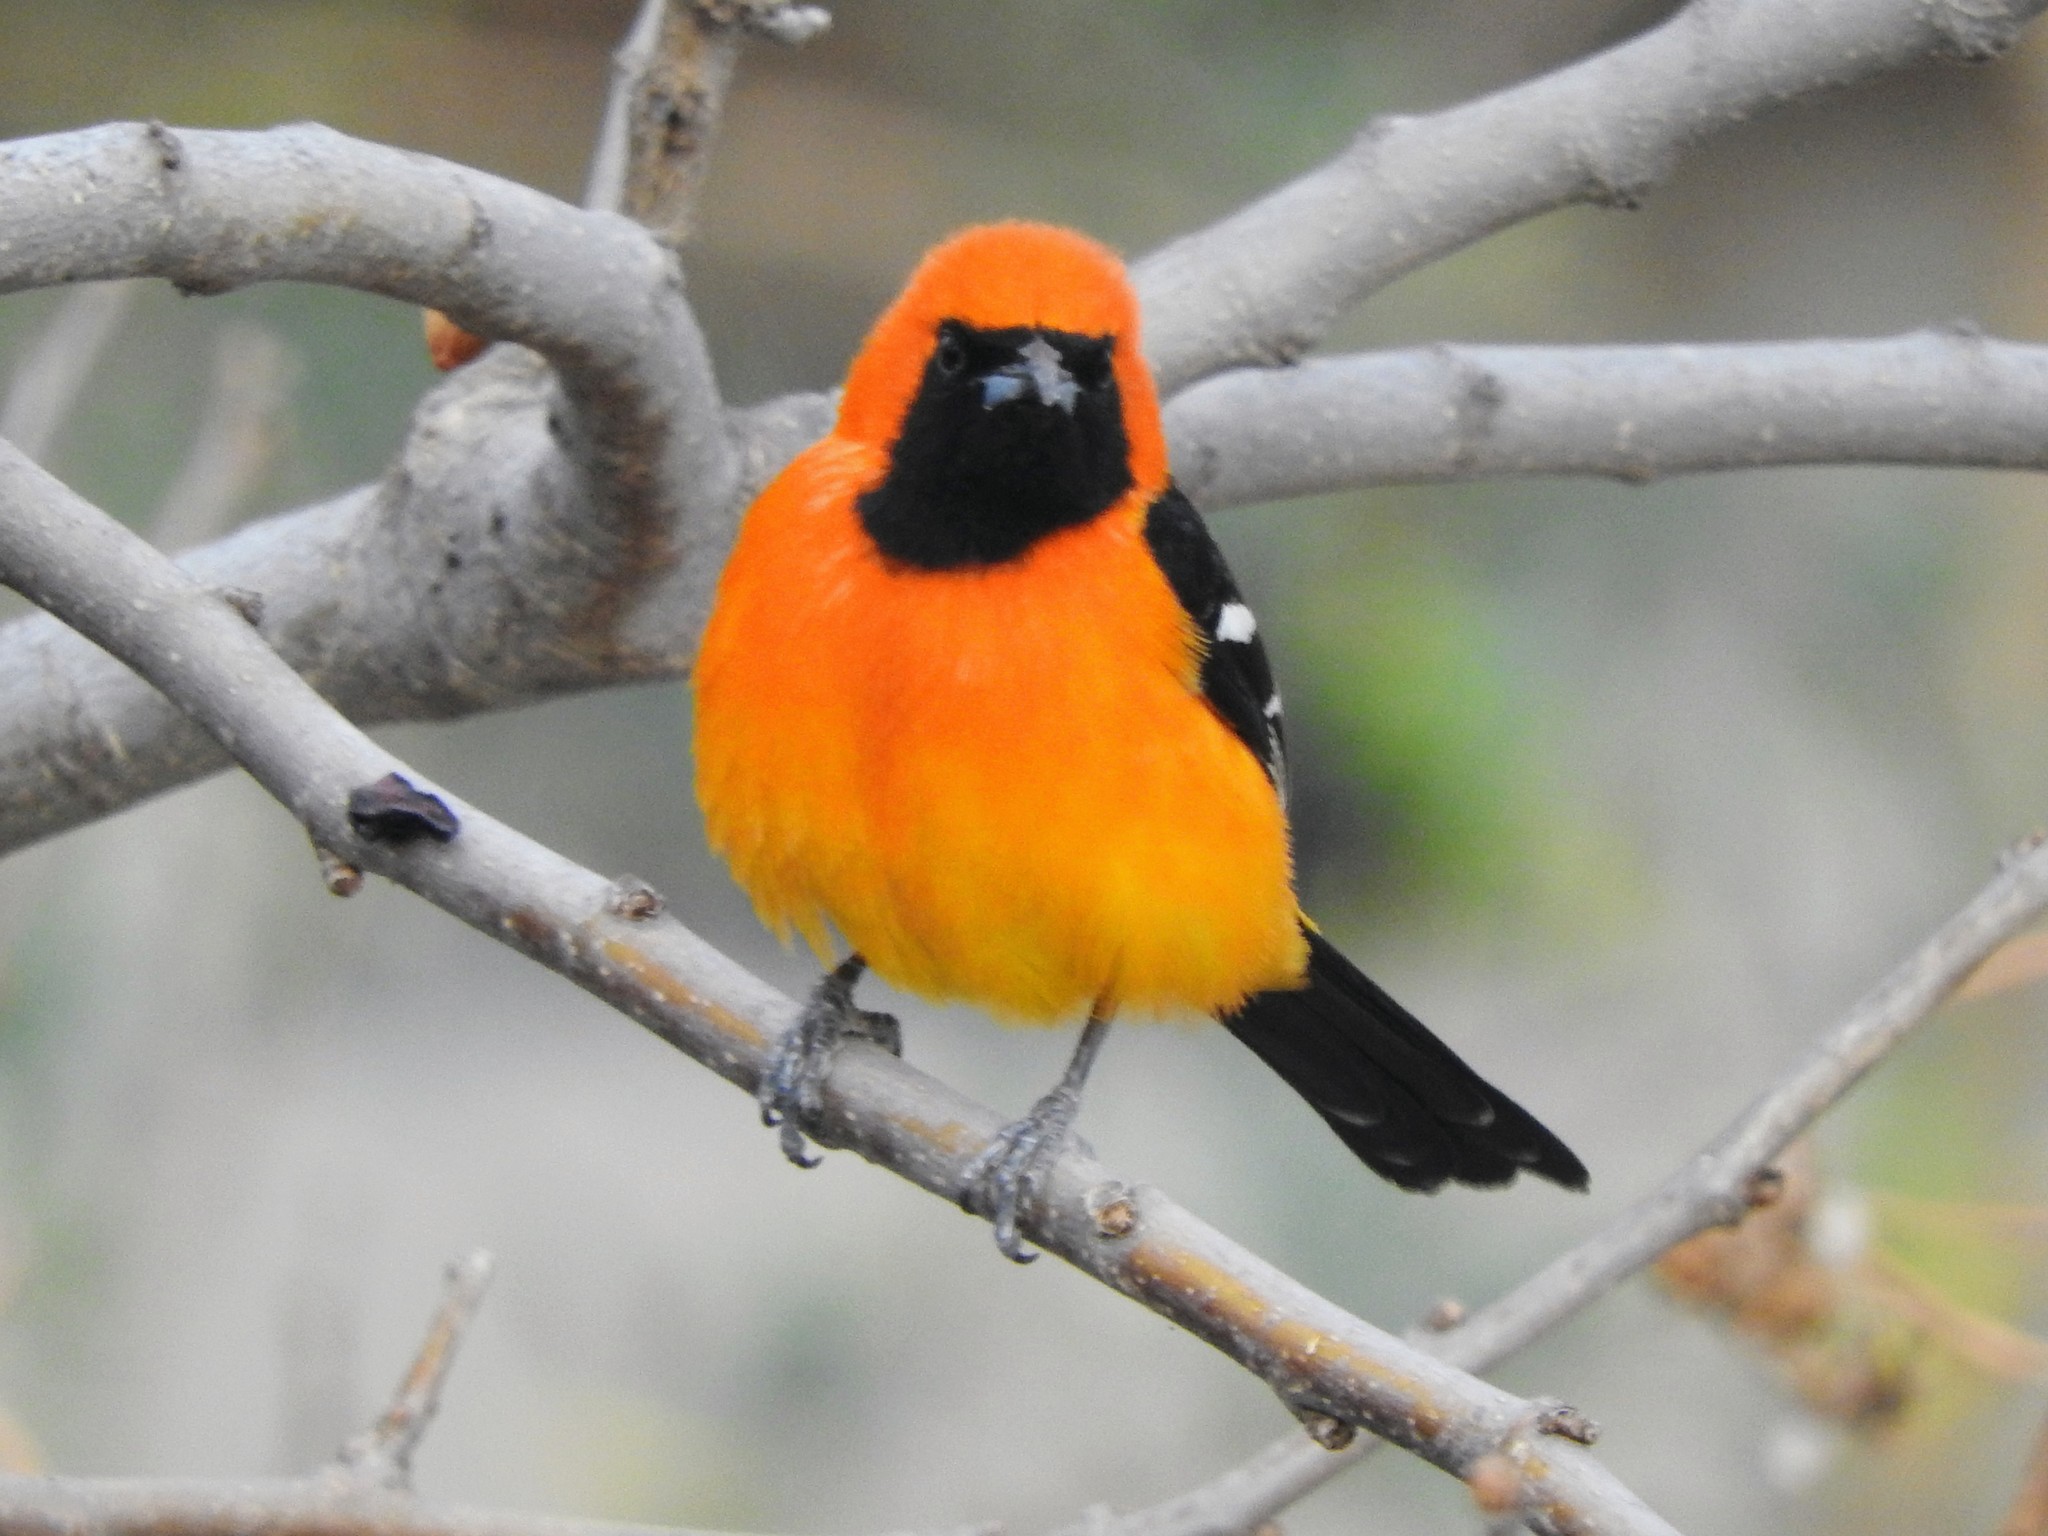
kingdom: Animalia
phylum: Chordata
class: Aves
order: Passeriformes
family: Icteridae
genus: Icterus
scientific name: Icterus cucullatus
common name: Hooded oriole
